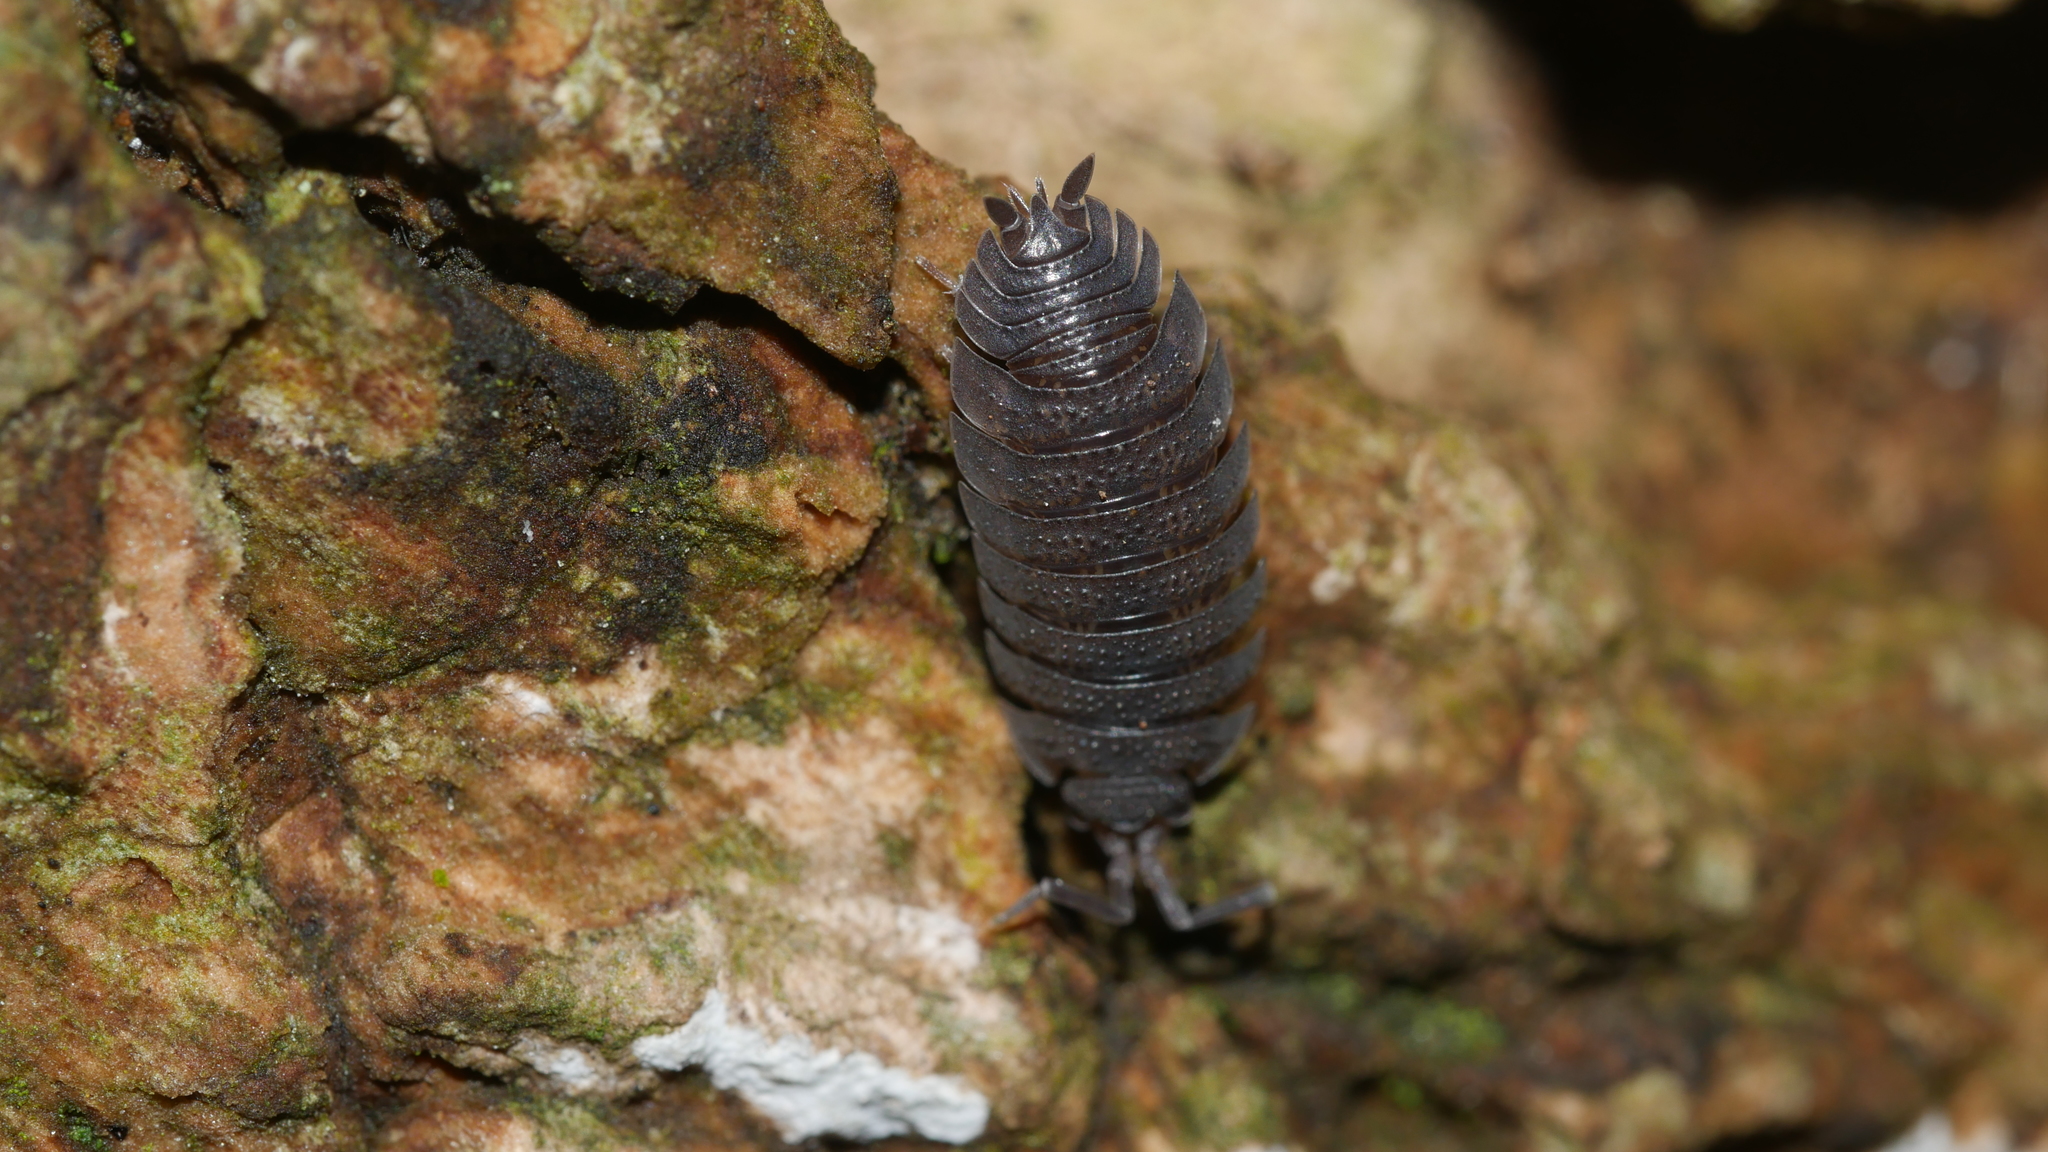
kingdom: Animalia
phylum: Arthropoda
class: Malacostraca
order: Isopoda
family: Porcellionidae
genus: Porcellio
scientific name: Porcellio scaber
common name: Common rough woodlouse
